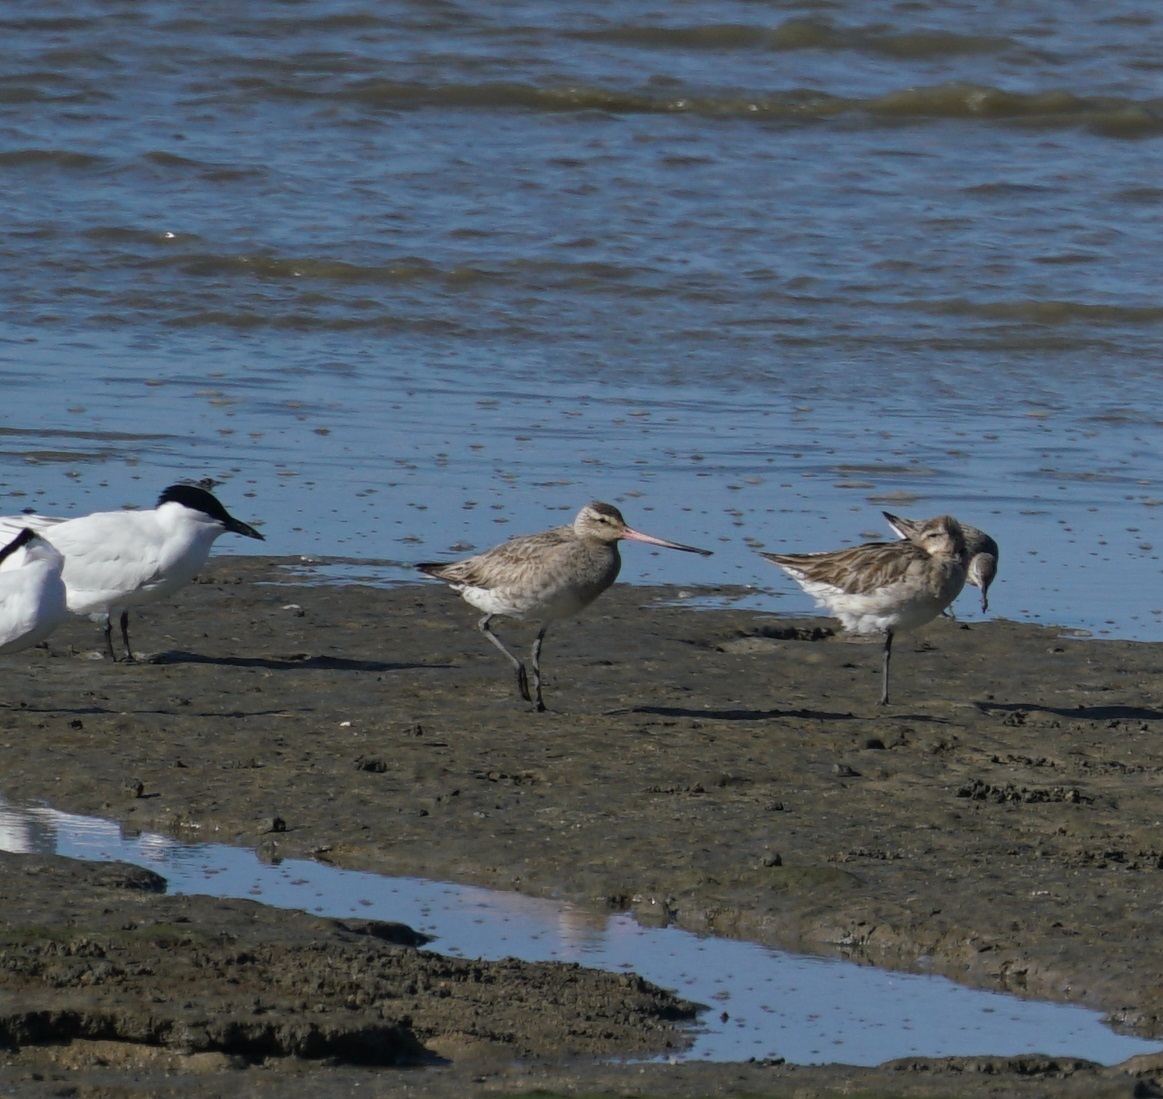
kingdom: Animalia
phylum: Chordata
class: Aves
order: Charadriiformes
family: Scolopacidae
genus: Limosa
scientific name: Limosa lapponica
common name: Bar-tailed godwit
